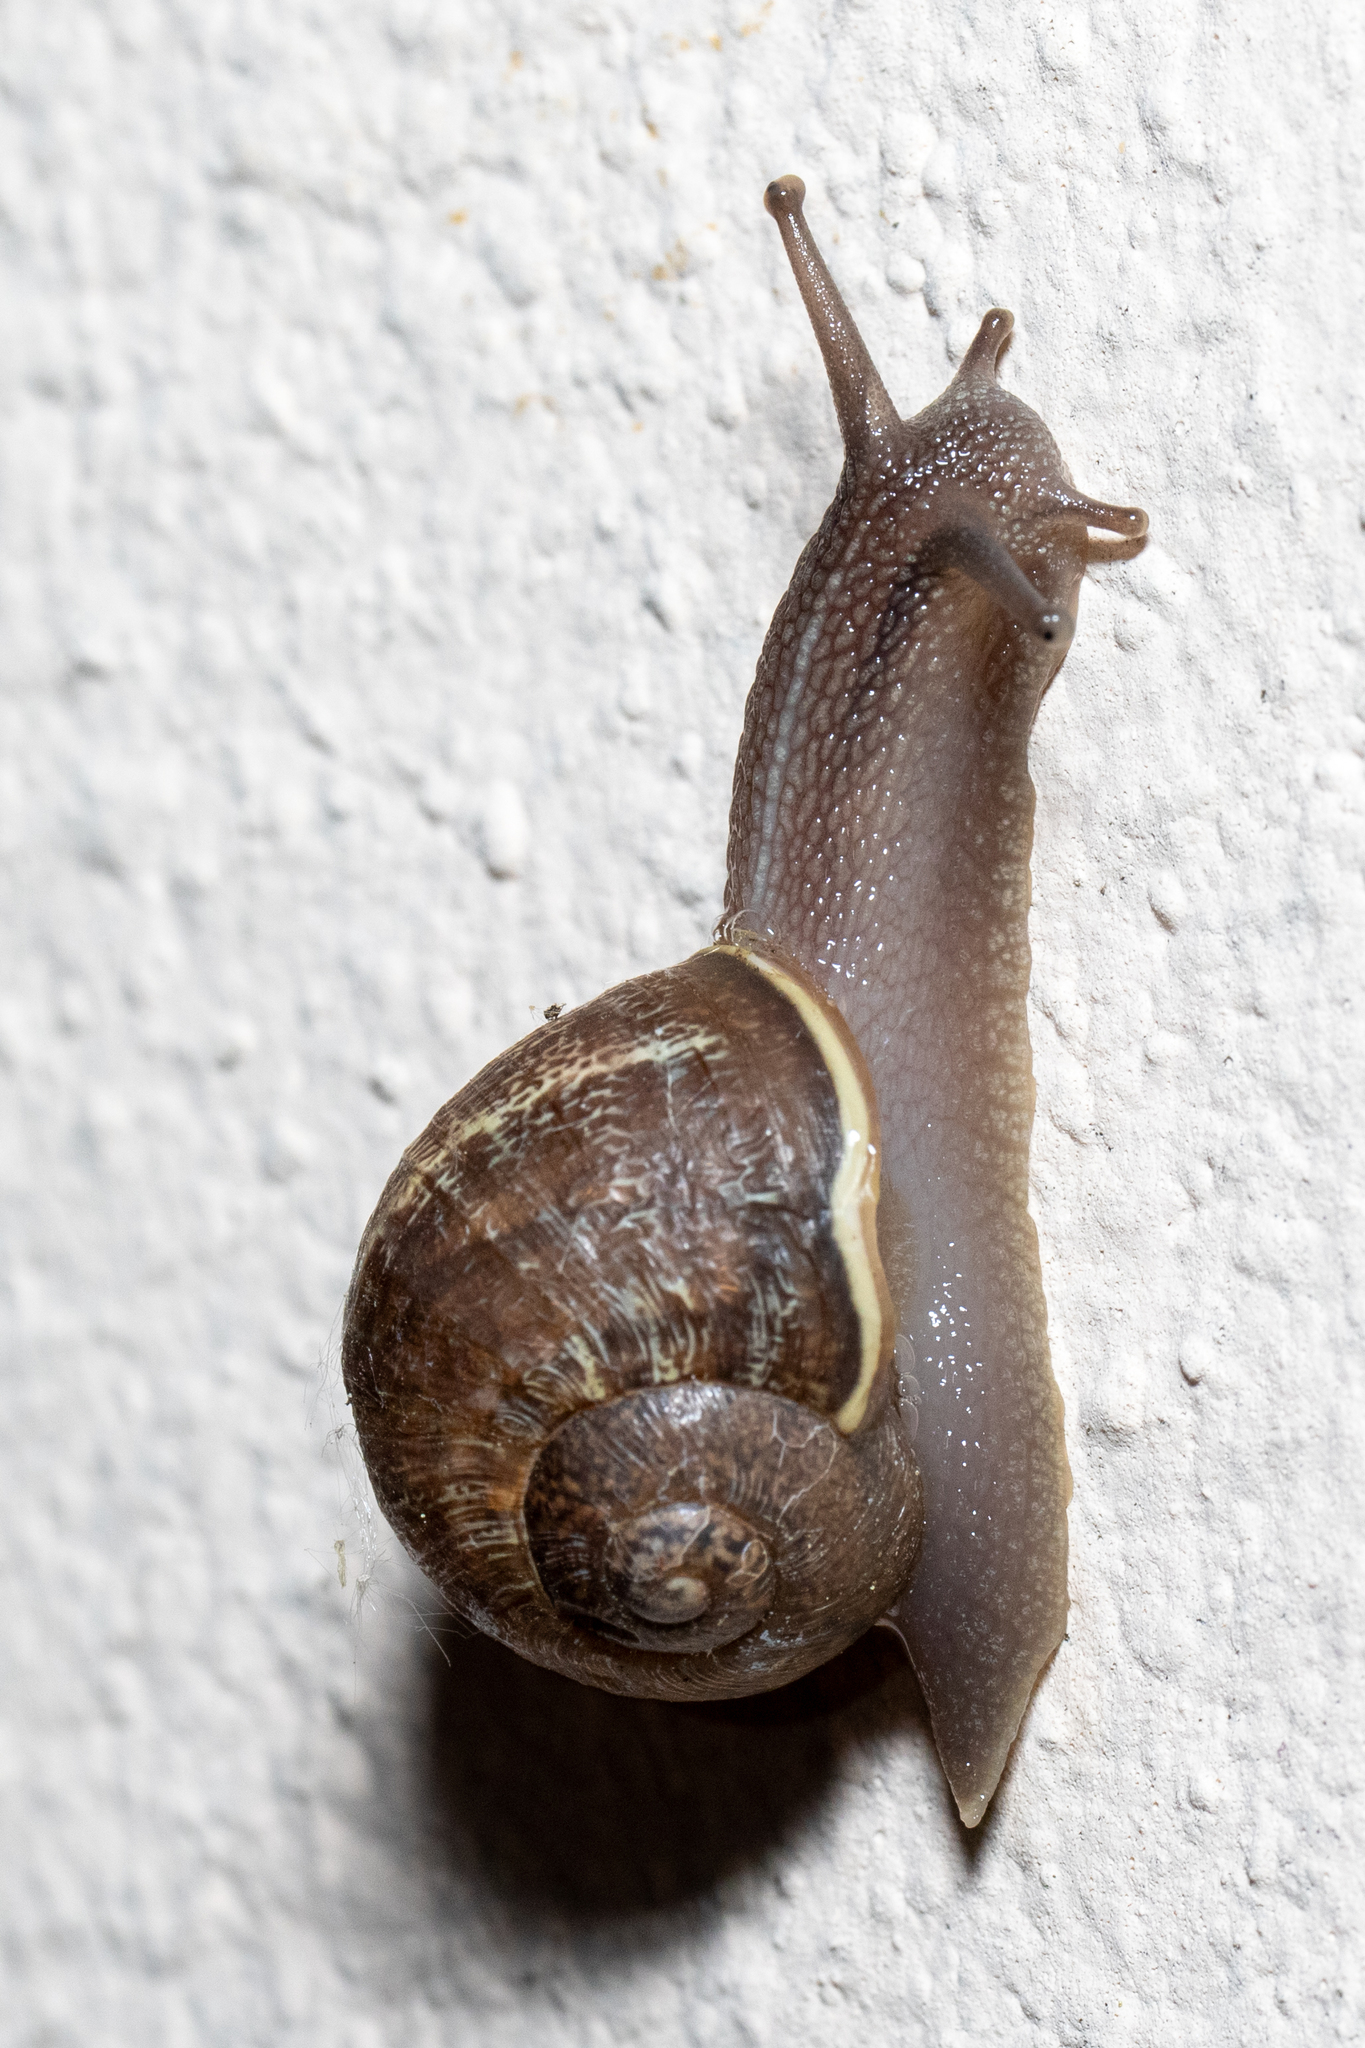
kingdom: Animalia
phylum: Mollusca
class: Gastropoda
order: Stylommatophora
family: Helicidae
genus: Cornu
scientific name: Cornu aspersum
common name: Brown garden snail
